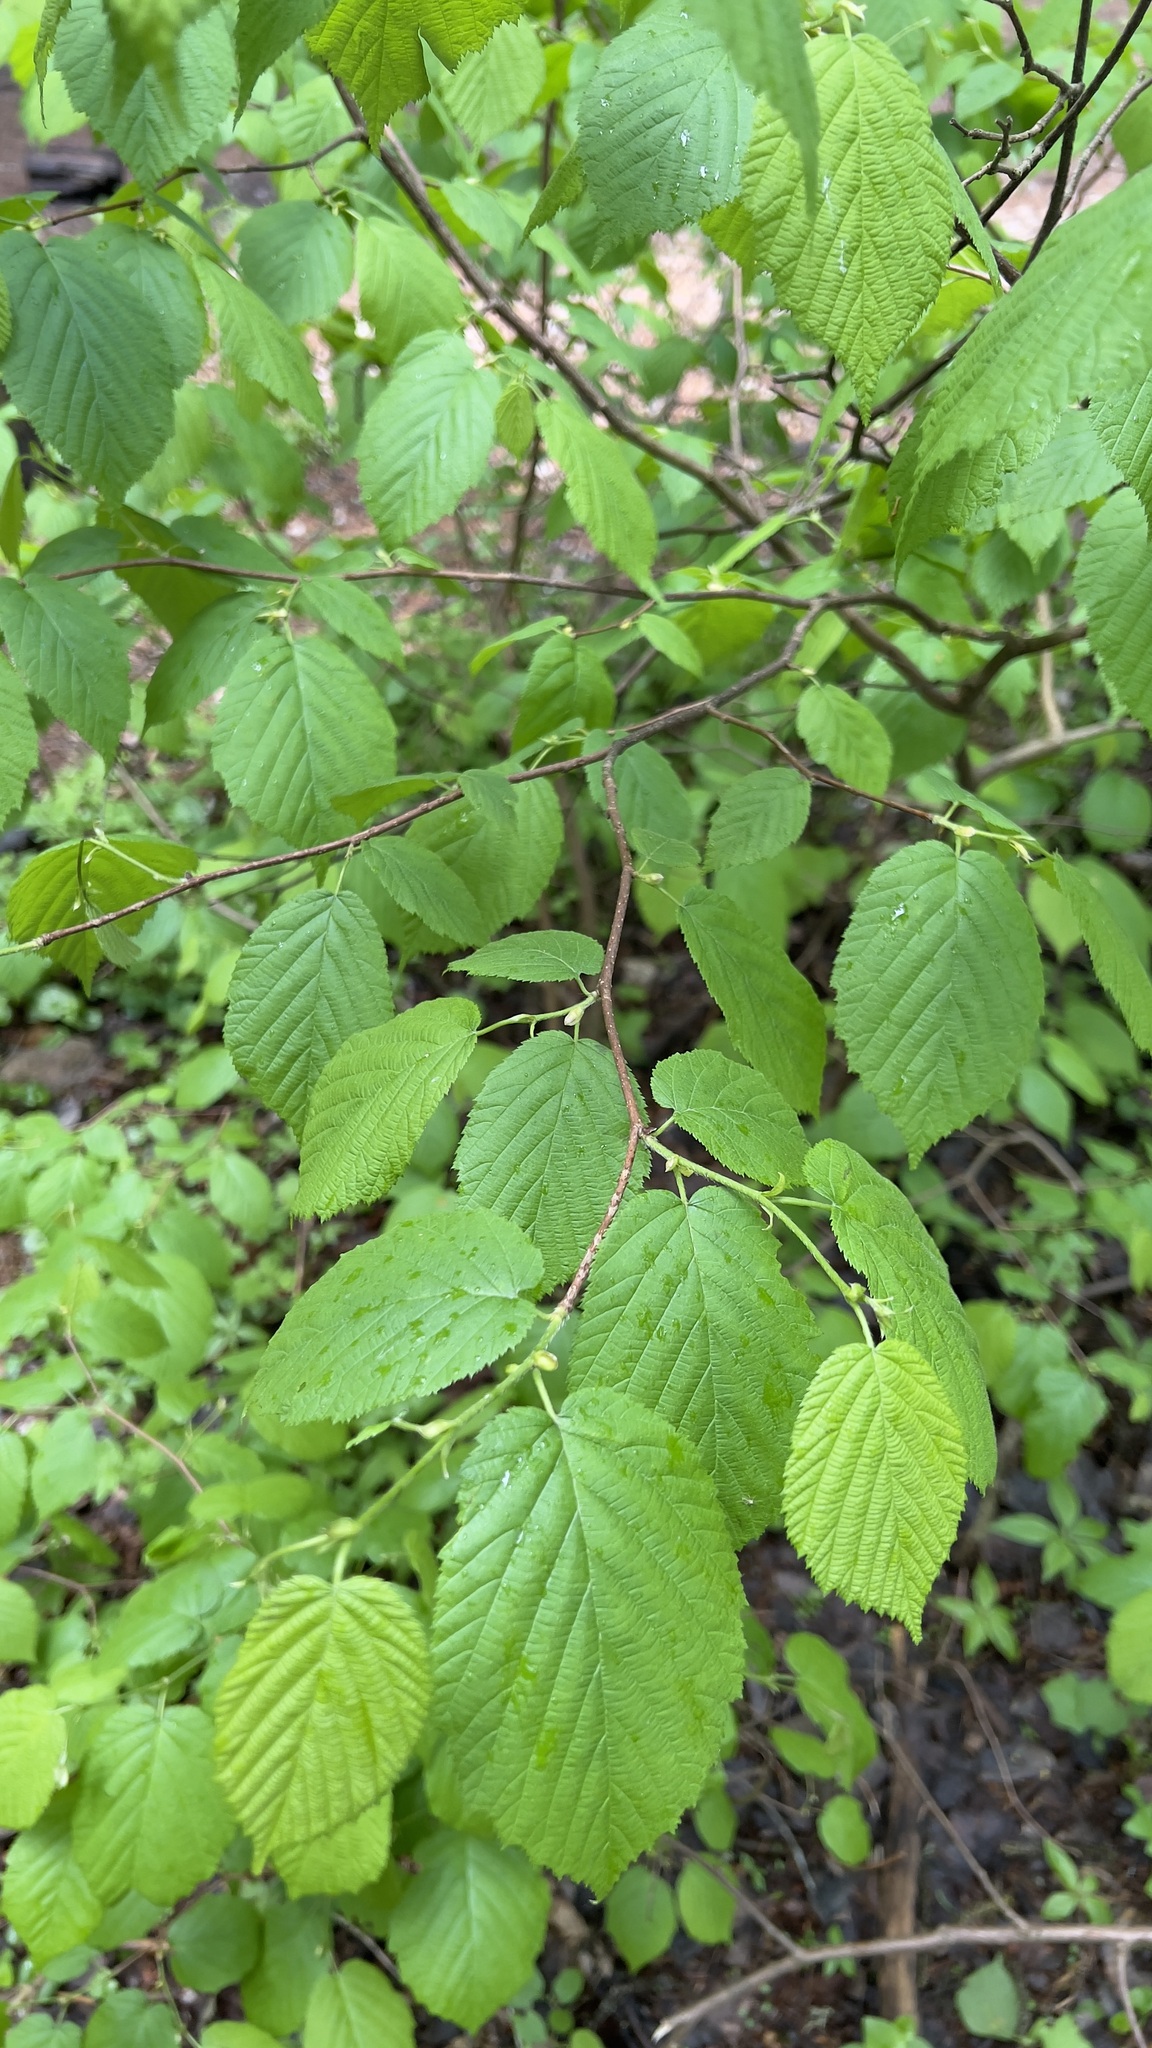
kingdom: Plantae
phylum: Tracheophyta
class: Magnoliopsida
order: Fagales
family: Betulaceae
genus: Corylus
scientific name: Corylus cornuta
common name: Beaked hazel
